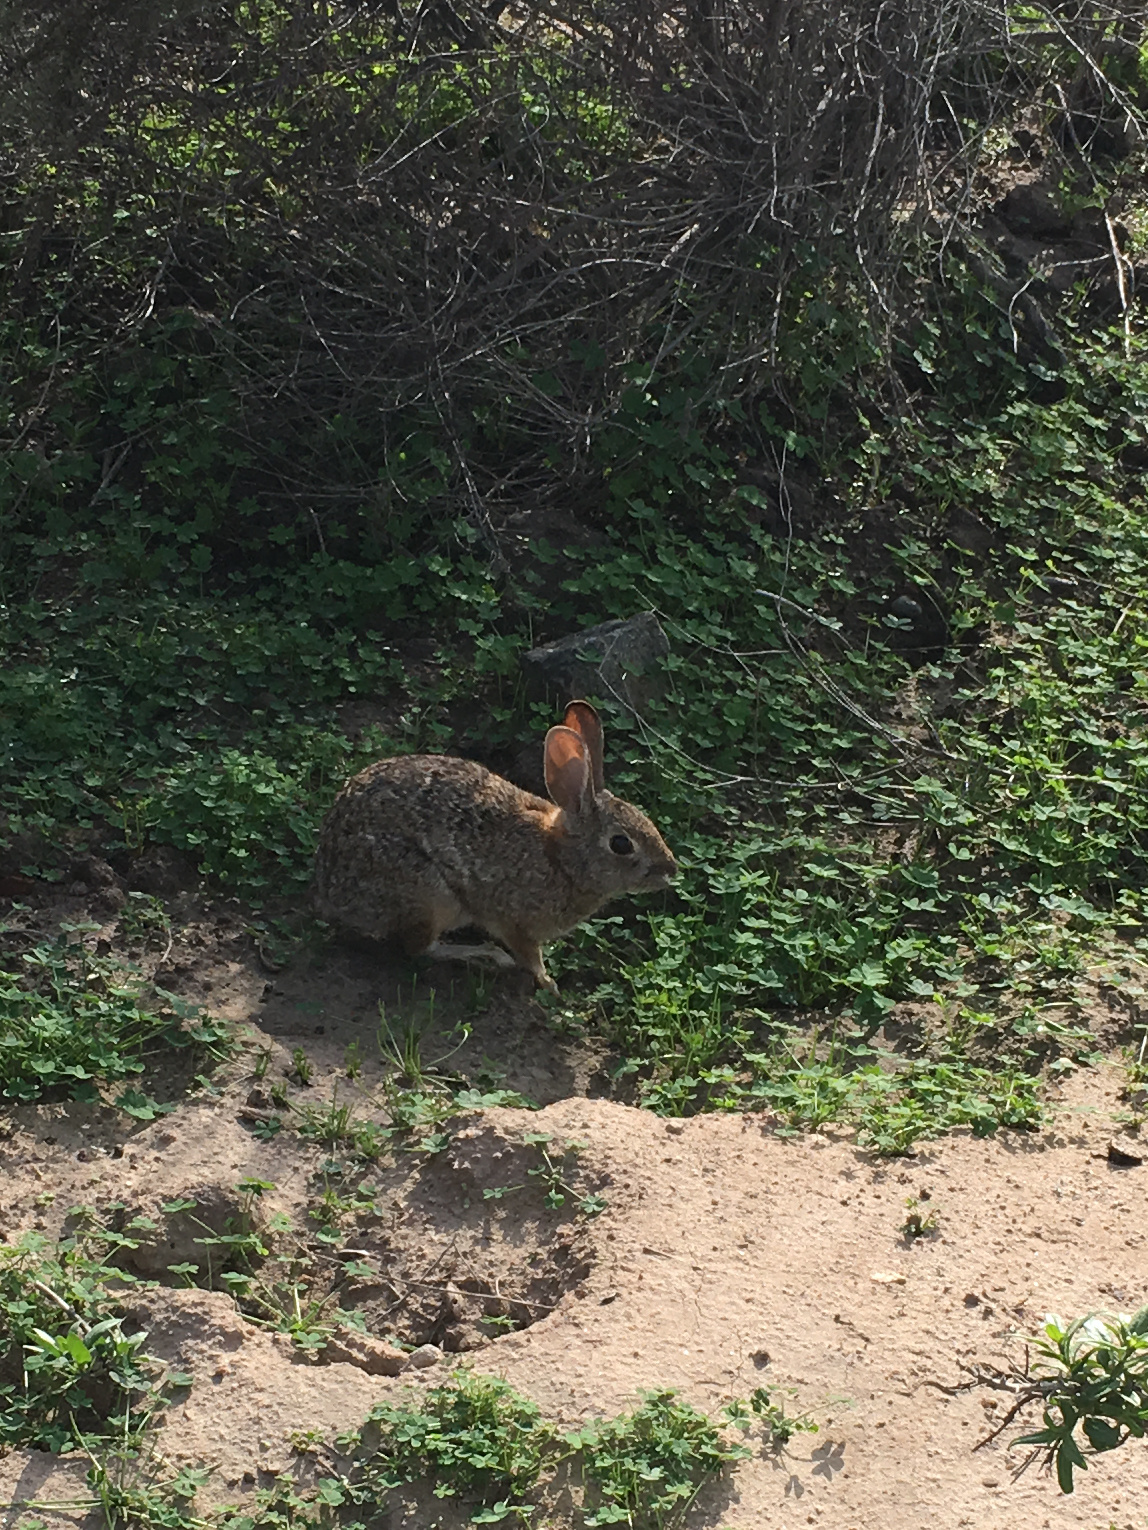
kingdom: Animalia
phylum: Chordata
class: Mammalia
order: Lagomorpha
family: Leporidae
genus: Sylvilagus
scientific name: Sylvilagus audubonii
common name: Desert cottontail
